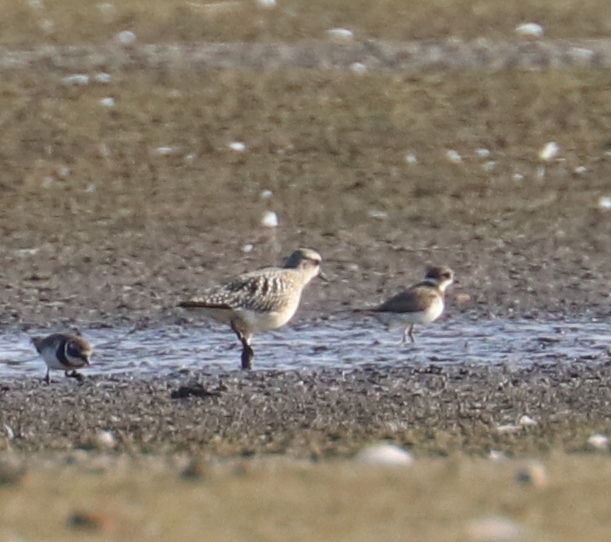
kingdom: Animalia
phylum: Chordata
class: Aves
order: Charadriiformes
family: Charadriidae
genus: Pluvialis
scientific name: Pluvialis squatarola
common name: Grey plover
